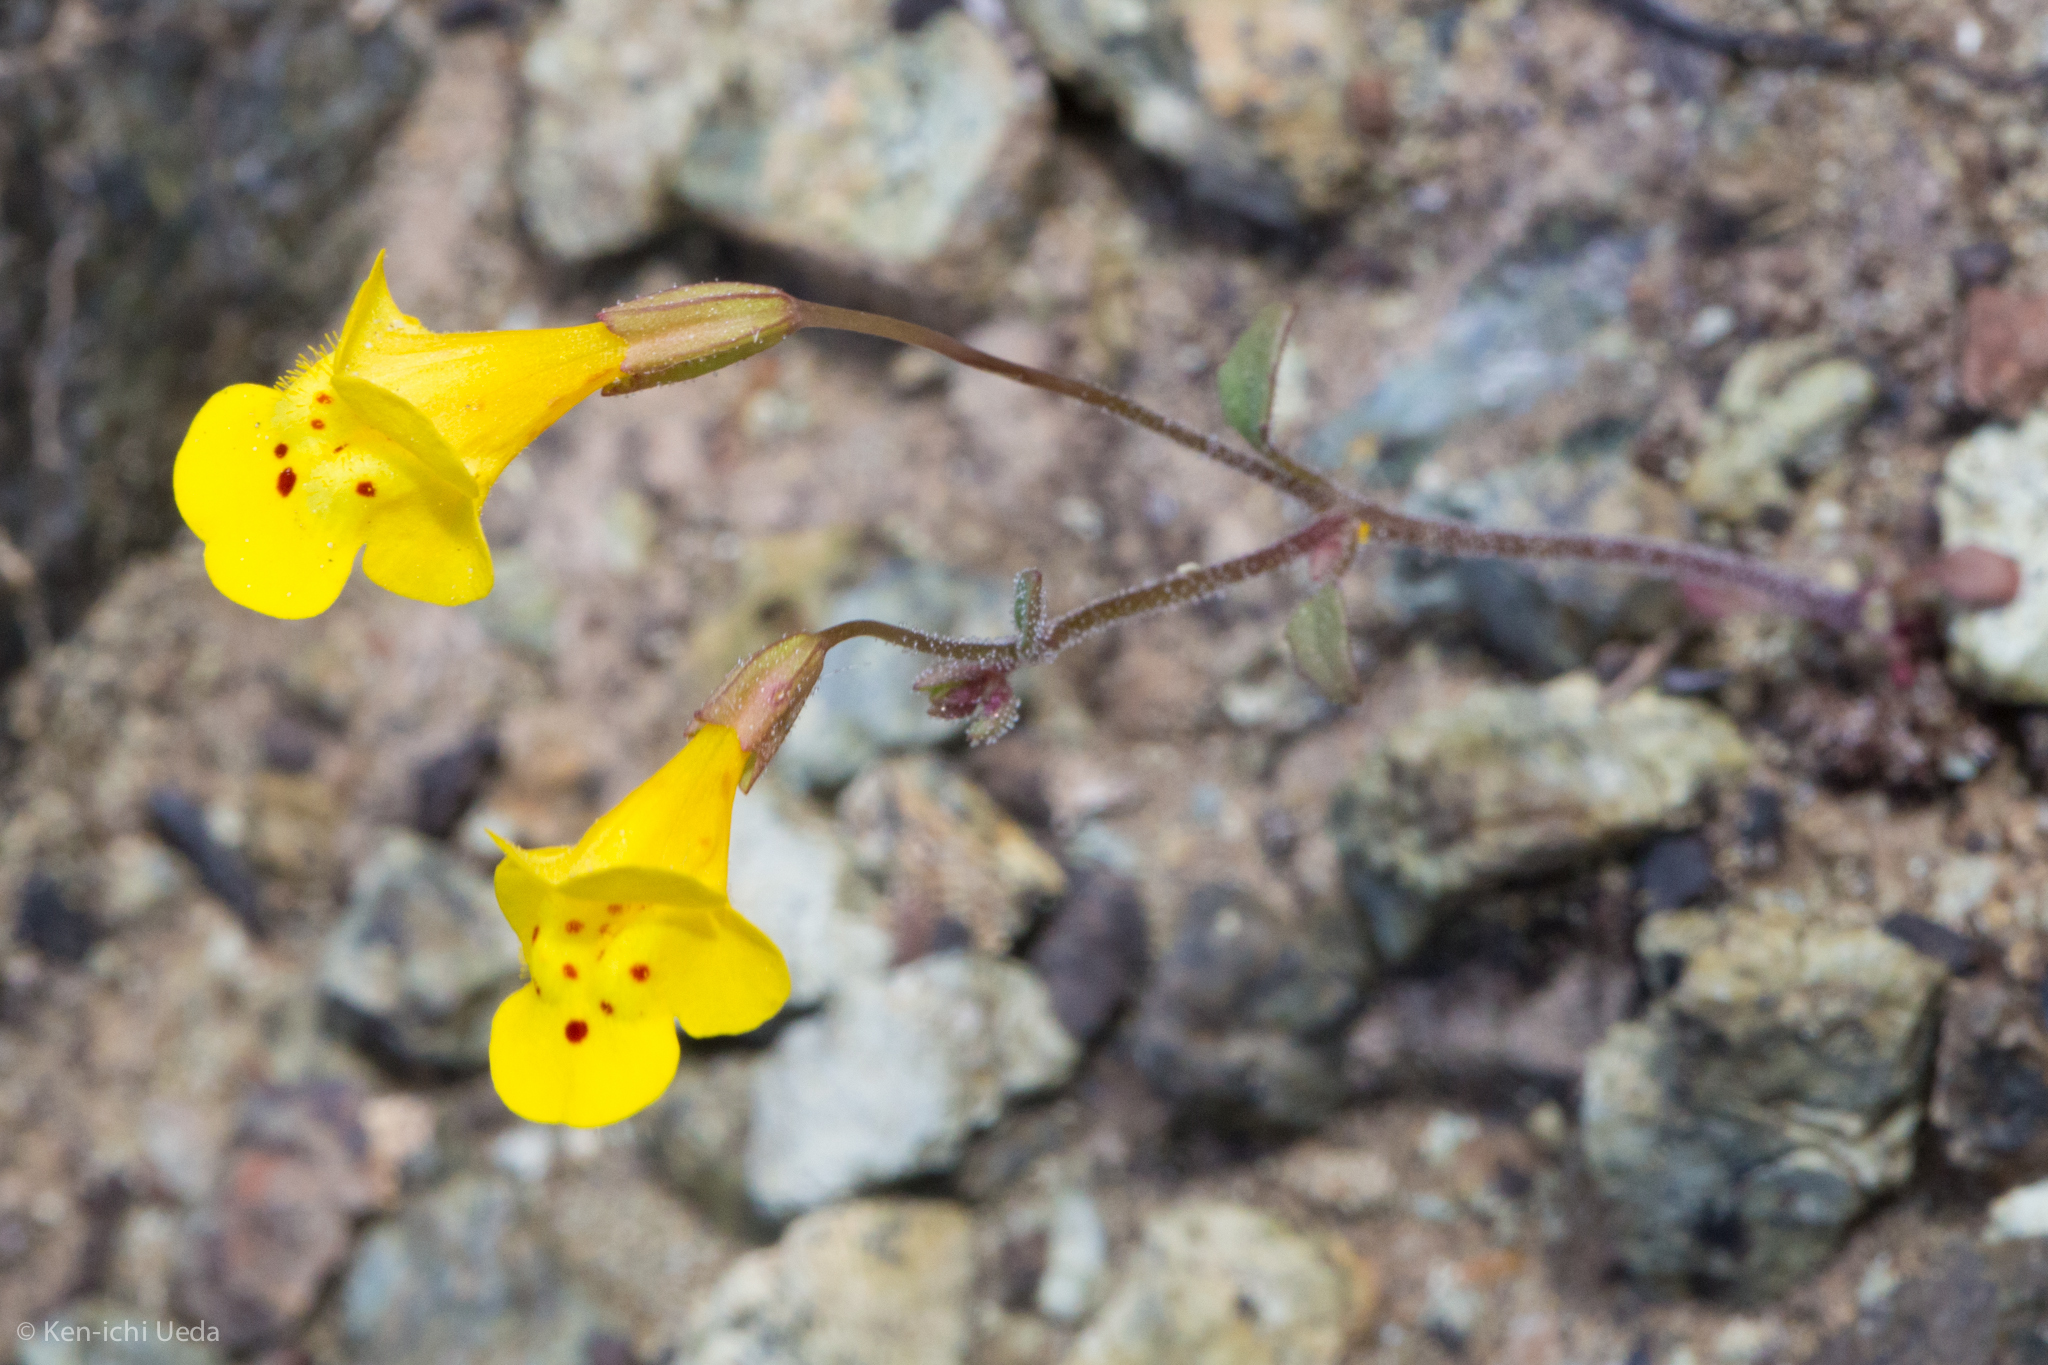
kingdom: Plantae
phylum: Tracheophyta
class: Magnoliopsida
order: Lamiales
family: Phrymaceae
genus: Erythranthe
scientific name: Erythranthe nudata
